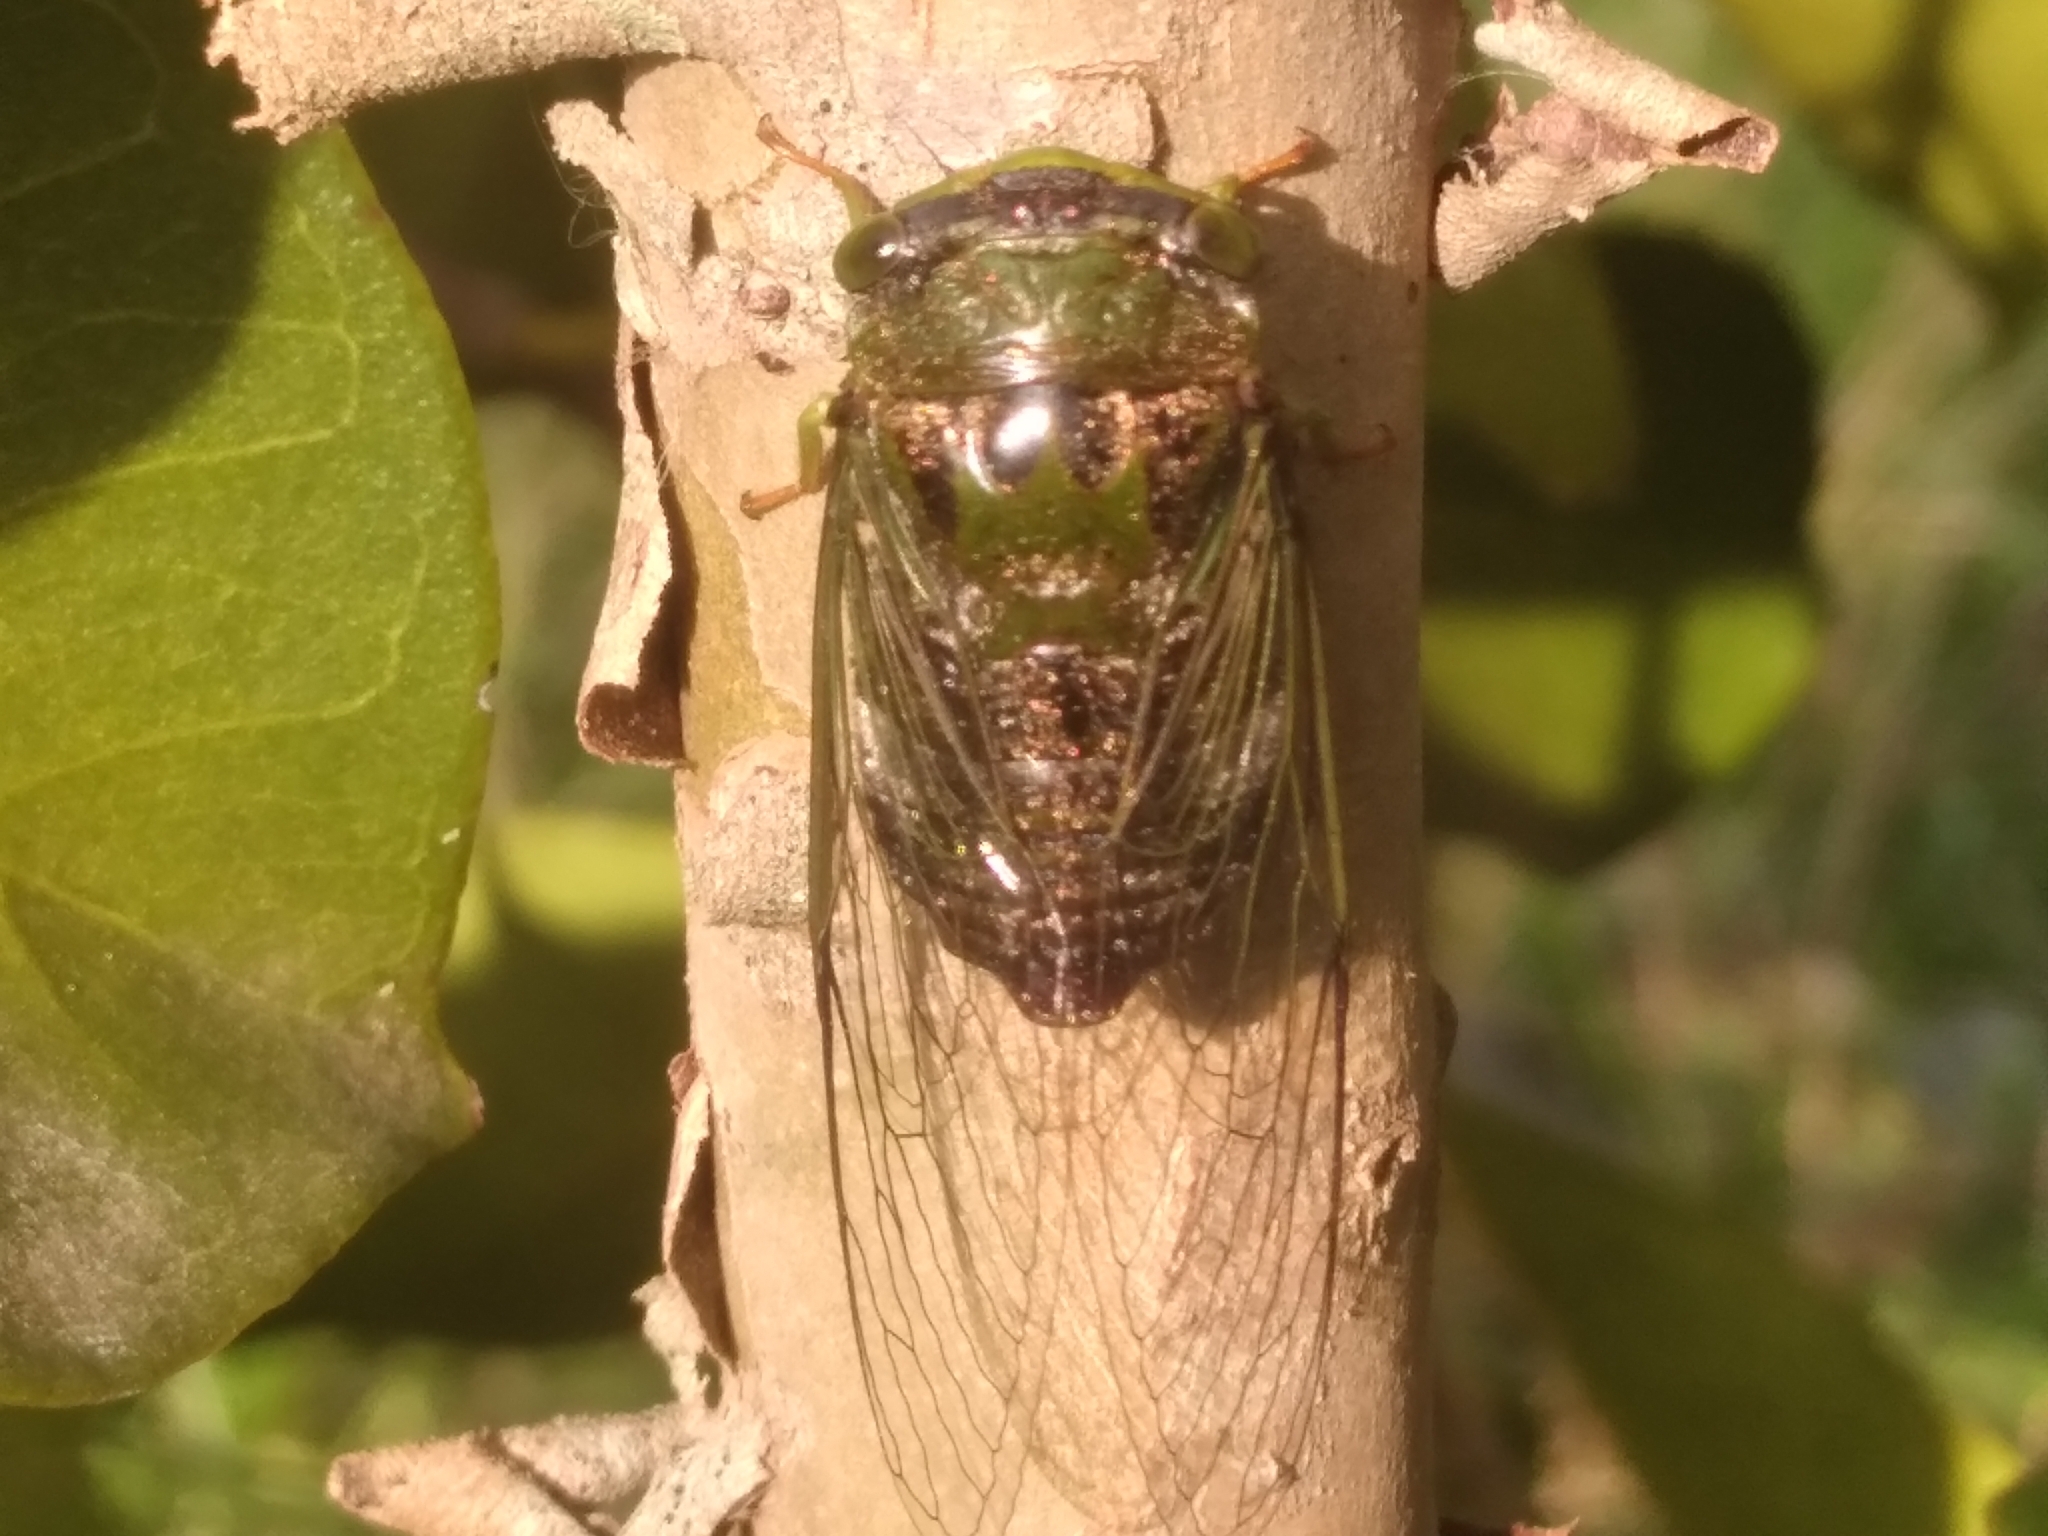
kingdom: Animalia
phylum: Arthropoda
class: Insecta
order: Hemiptera
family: Cicadidae
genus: Acanthoventris
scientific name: Acanthoventris drewseni
